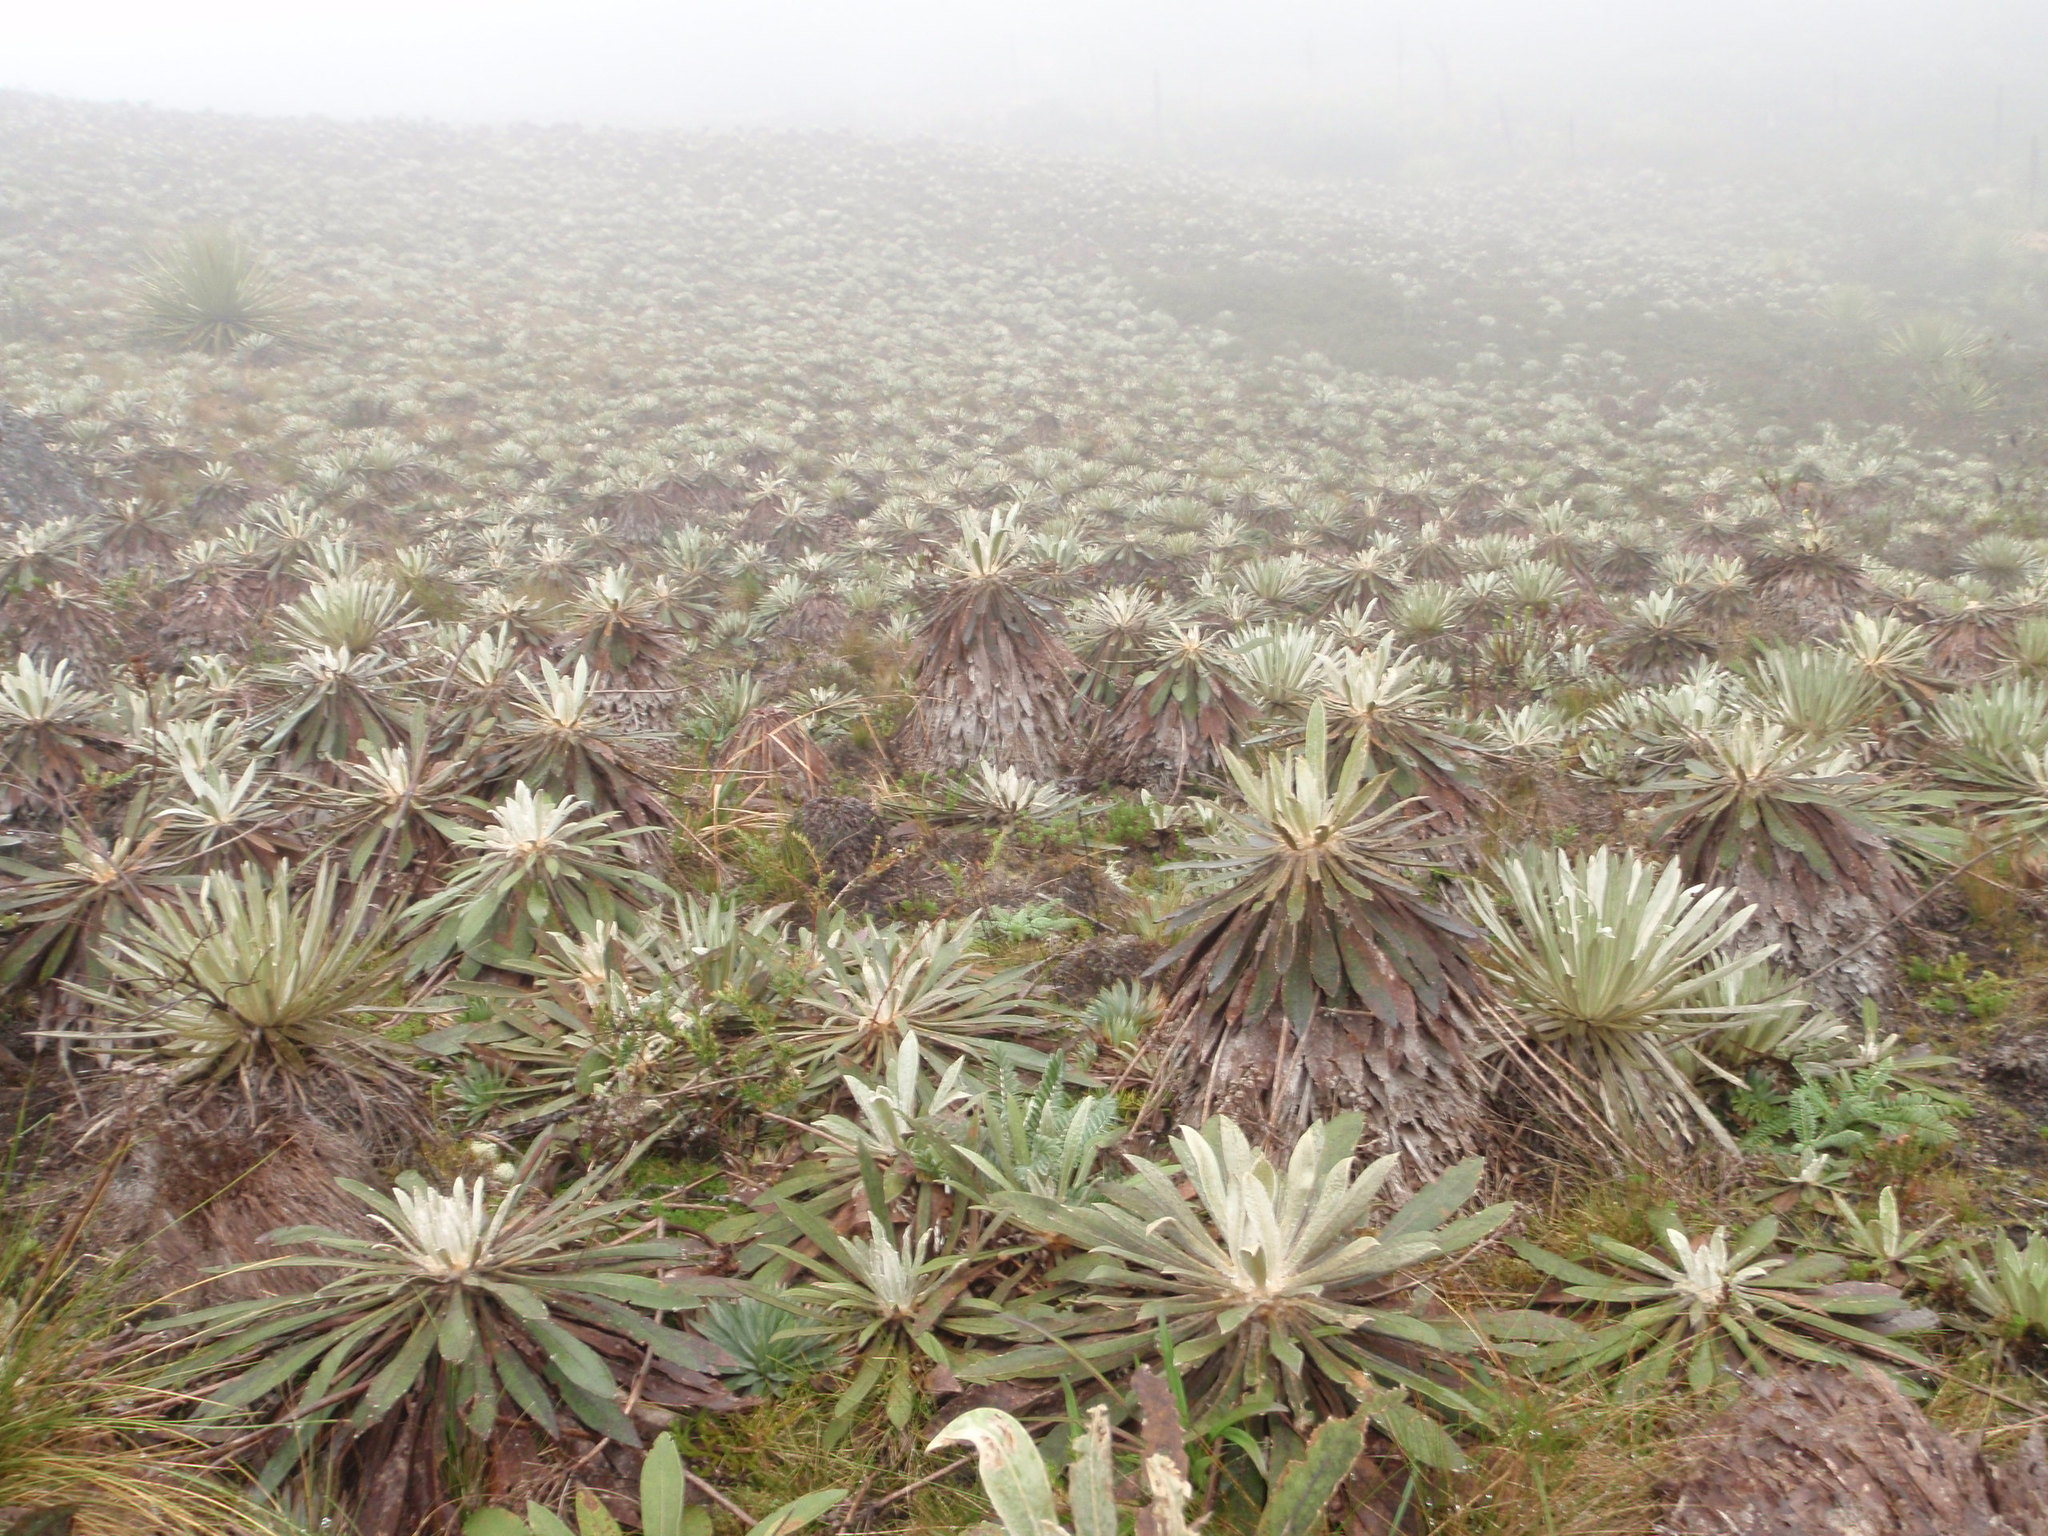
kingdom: Plantae
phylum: Tracheophyta
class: Magnoliopsida
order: Asterales
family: Asteraceae
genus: Espeletia
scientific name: Espeletia corymbosa
